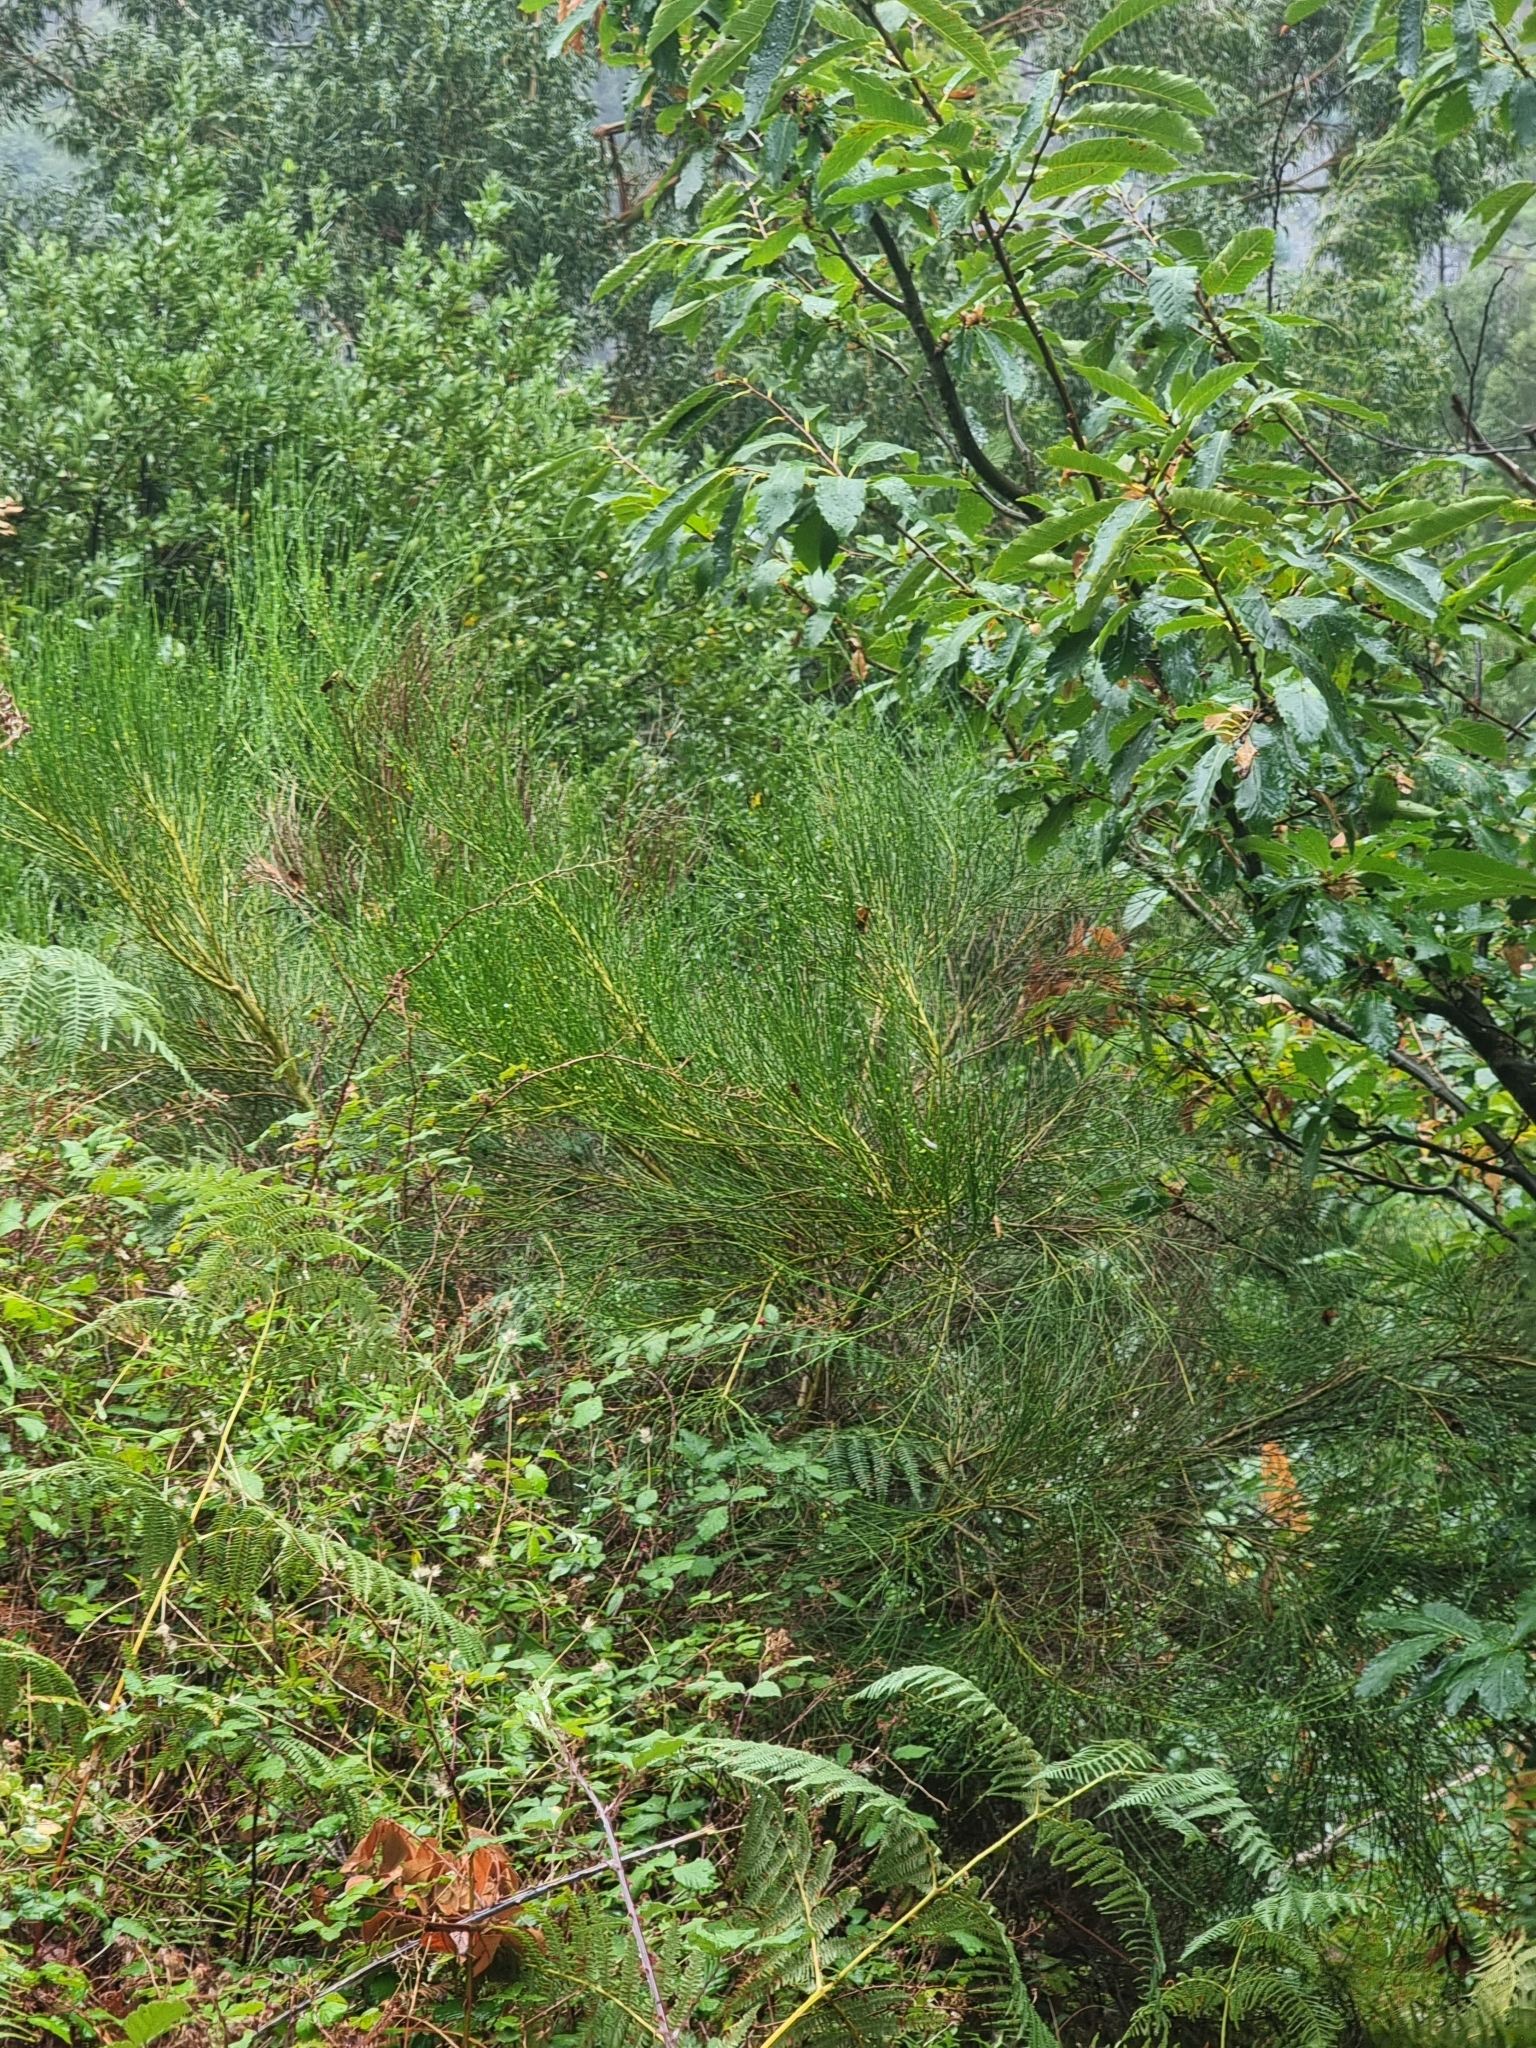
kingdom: Plantae
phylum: Tracheophyta
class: Magnoliopsida
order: Fabales
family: Fabaceae
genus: Cytisus
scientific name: Cytisus scoparius
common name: Scotch broom
